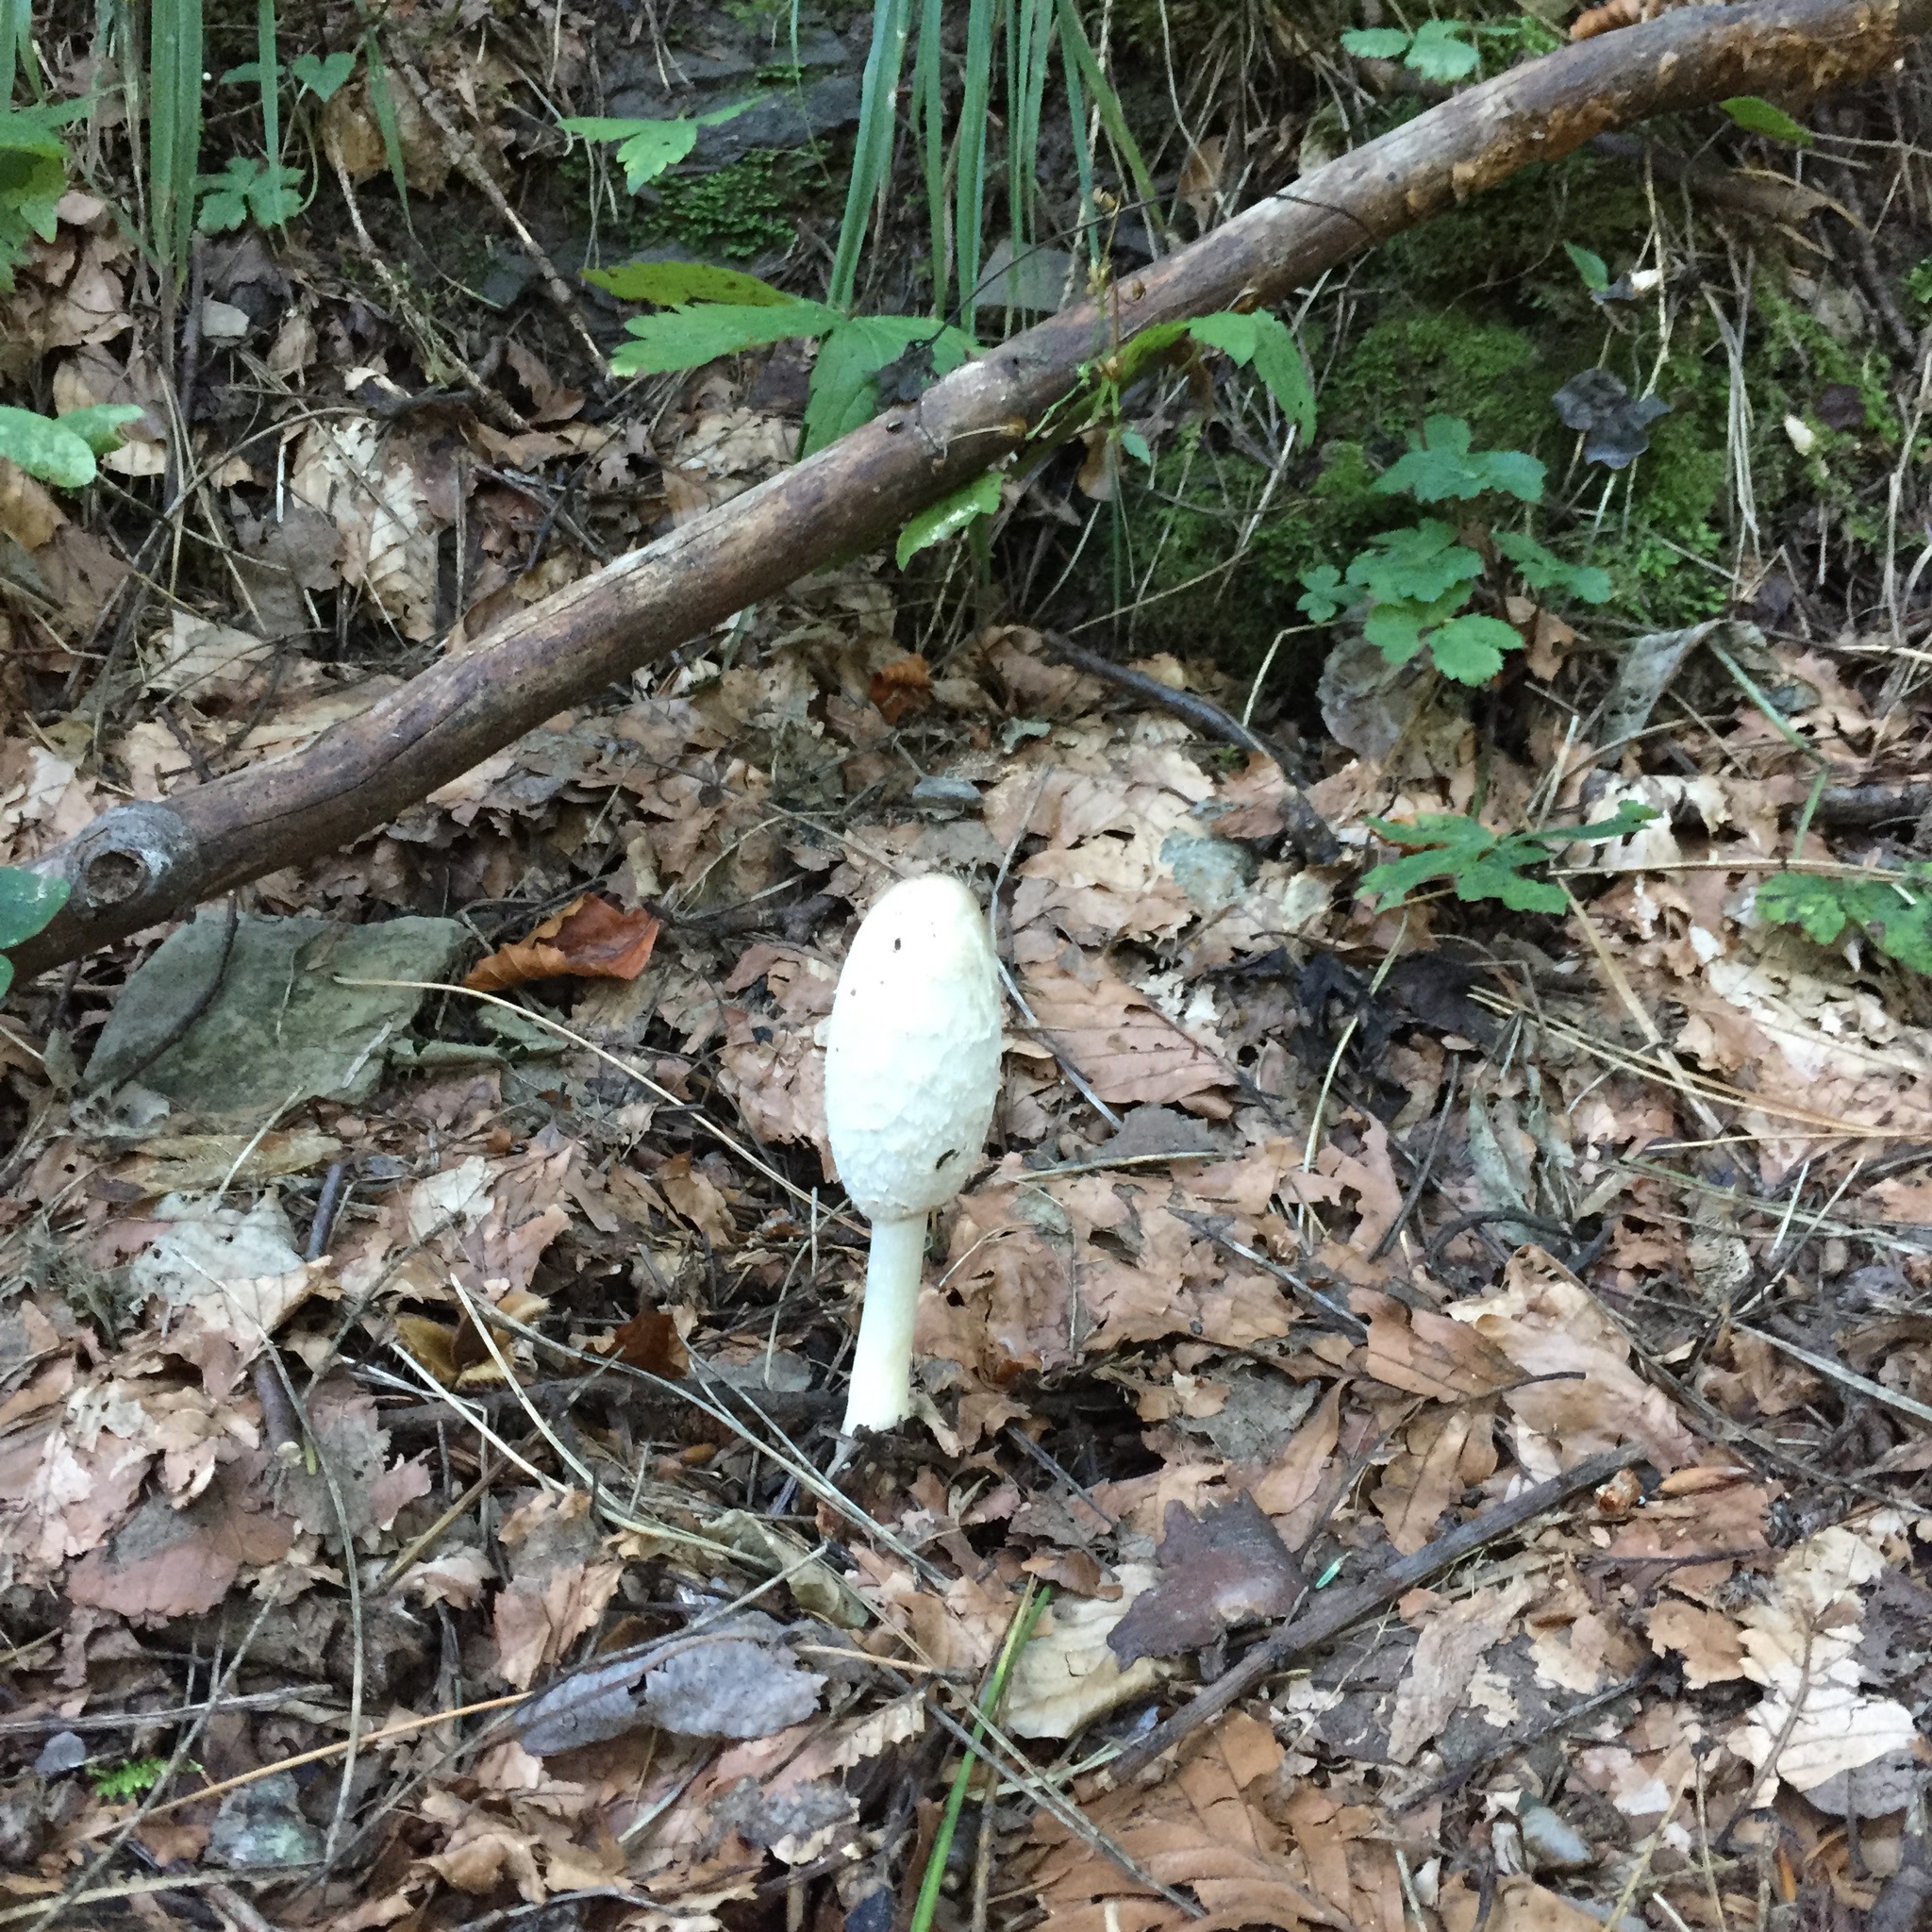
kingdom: Fungi
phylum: Basidiomycota
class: Agaricomycetes
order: Agaricales
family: Agaricaceae
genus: Coprinus
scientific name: Coprinus comatus
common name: Lawyer's wig
